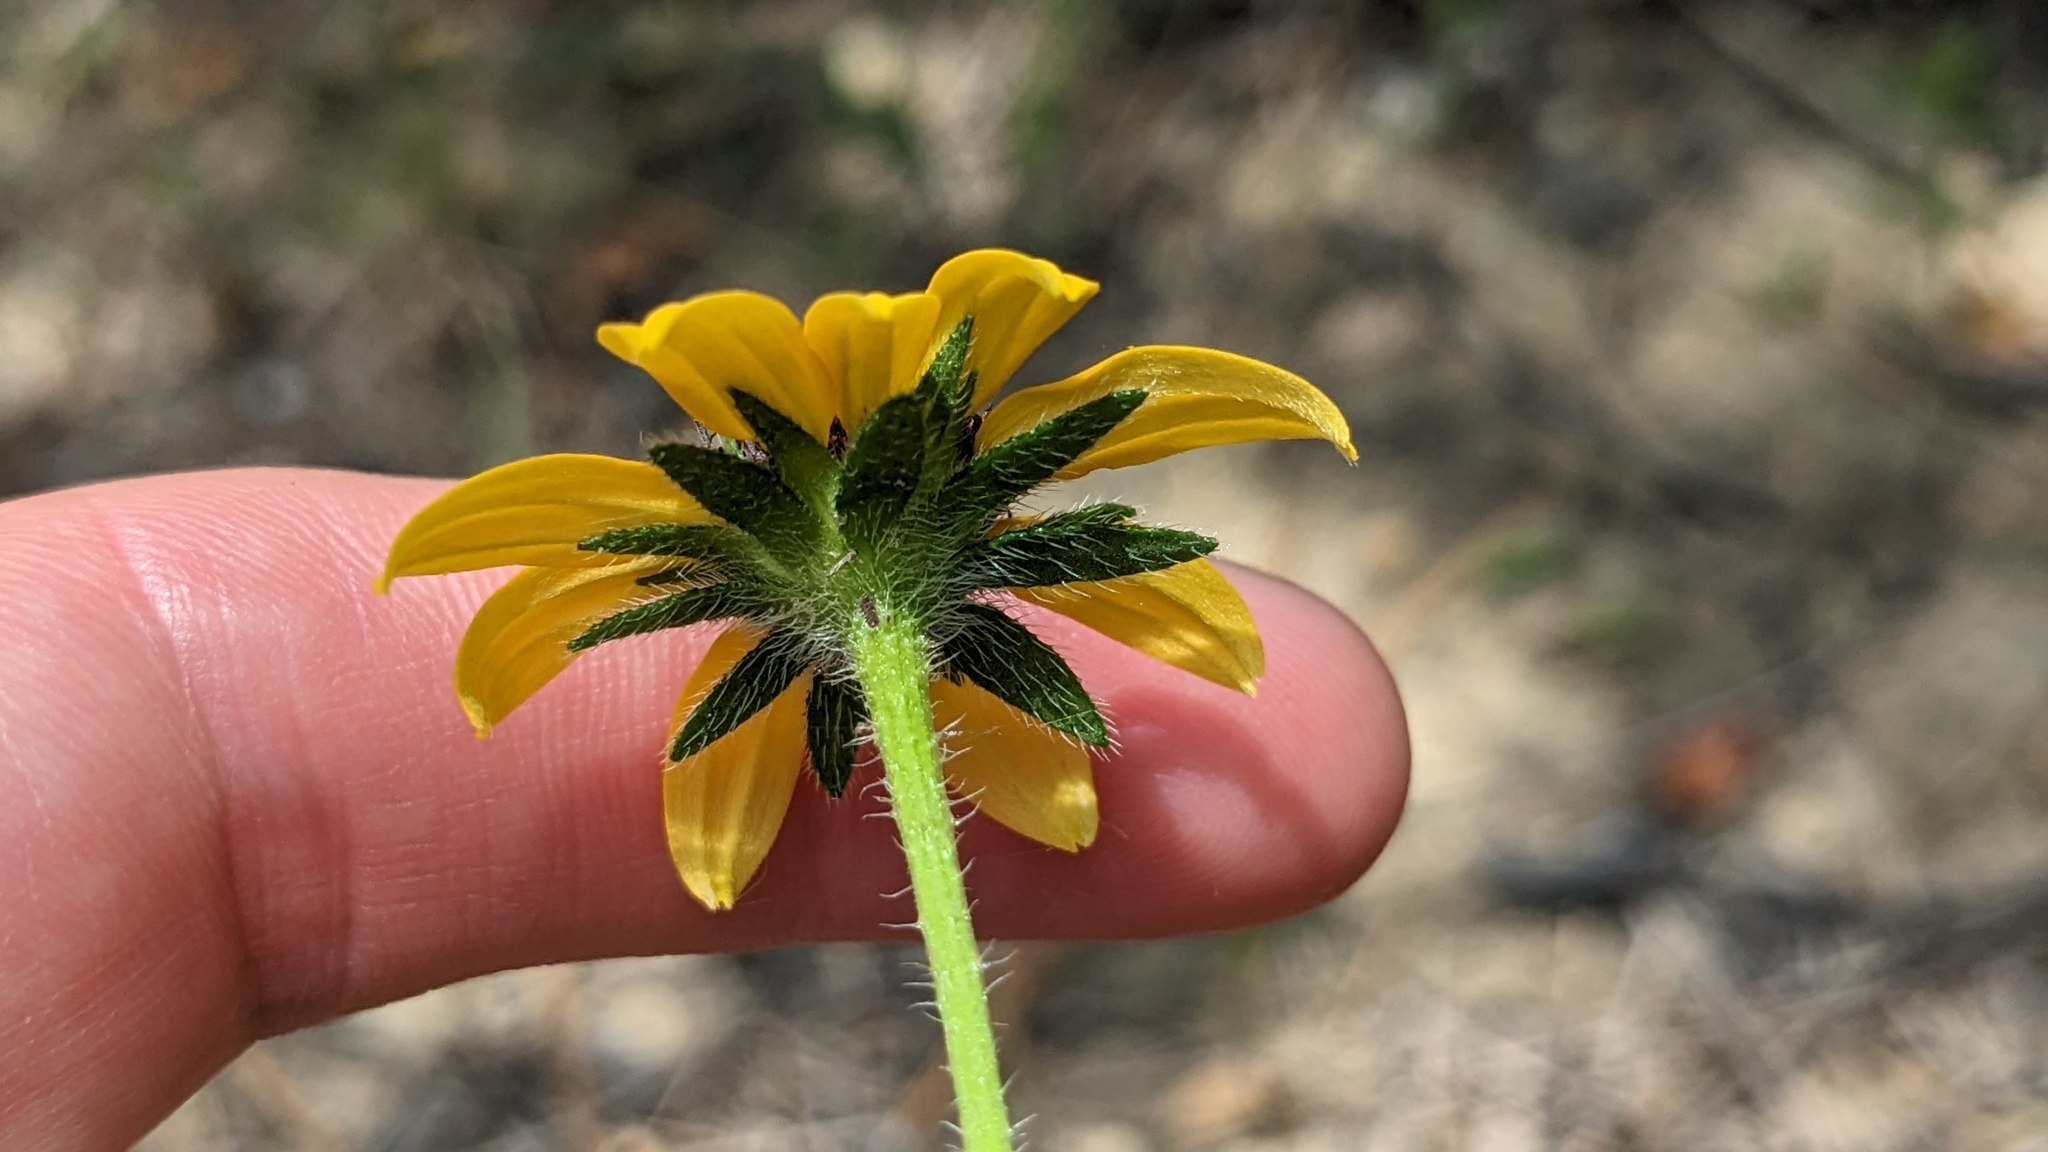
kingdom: Plantae
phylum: Tracheophyta
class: Magnoliopsida
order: Asterales
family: Asteraceae
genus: Rudbeckia
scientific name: Rudbeckia hirta
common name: Black-eyed-susan
